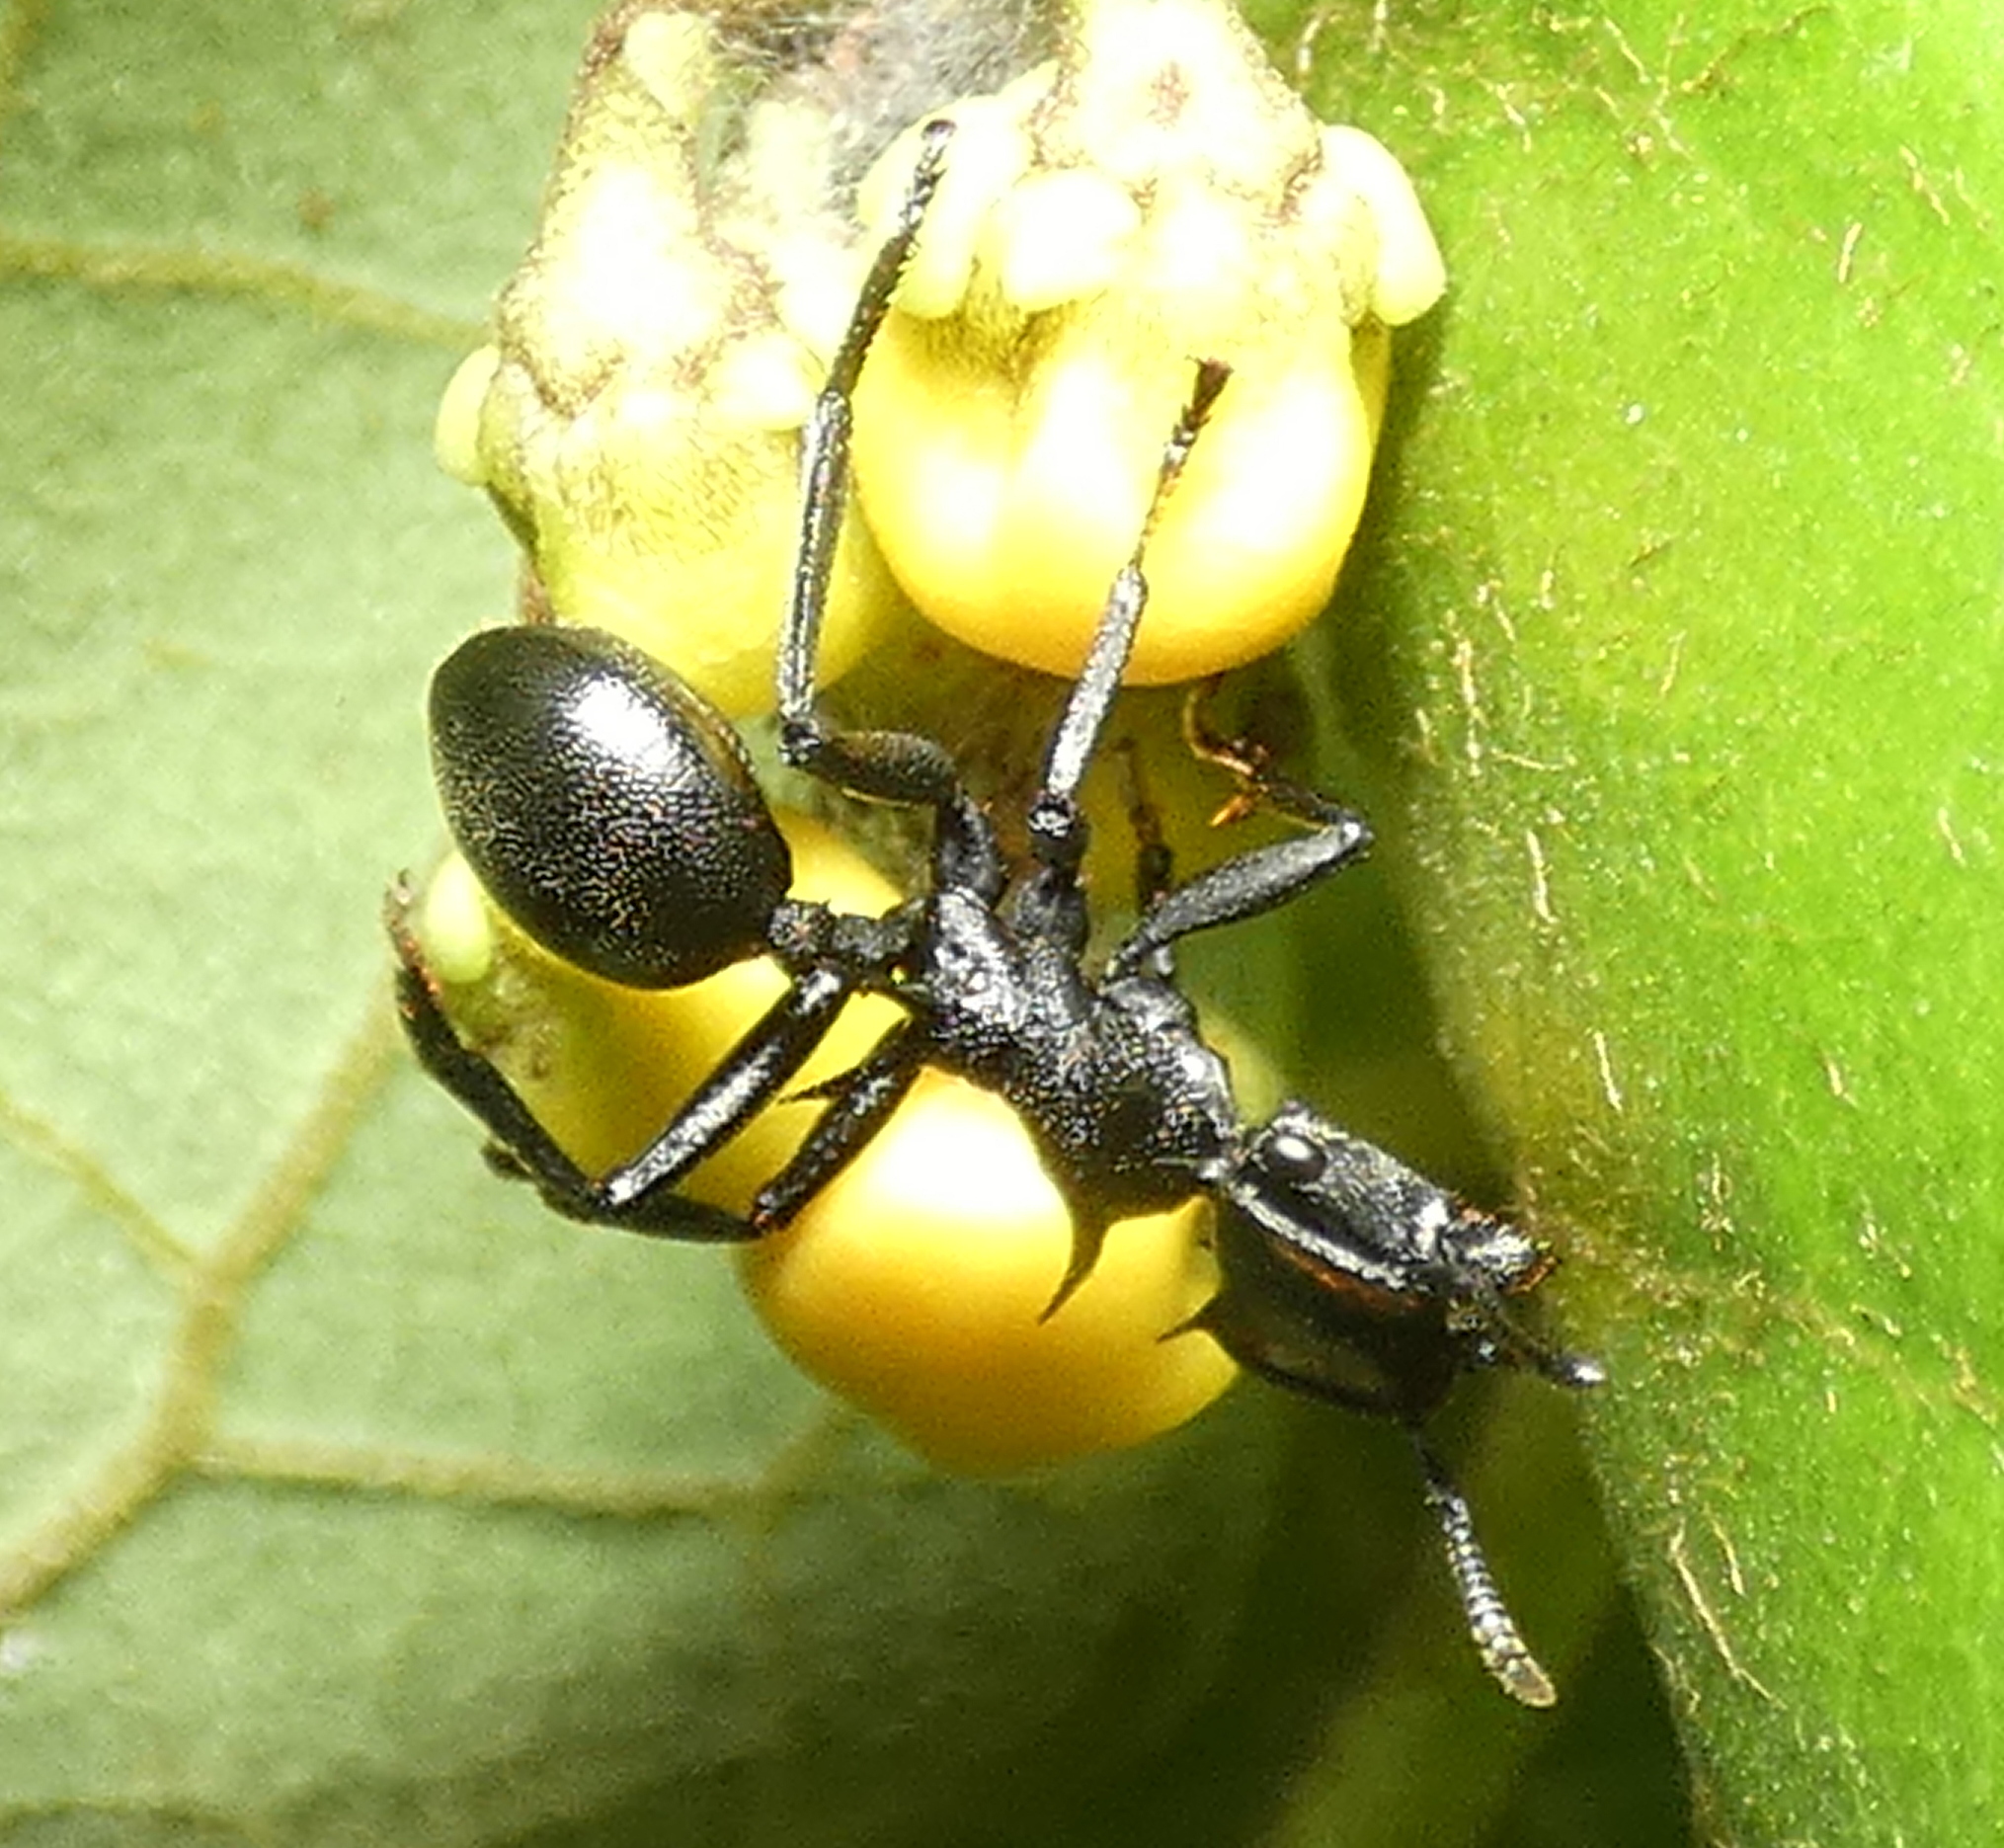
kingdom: Animalia
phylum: Arthropoda
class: Insecta
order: Hymenoptera
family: Formicidae
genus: Cephalotes
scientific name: Cephalotes atratus
